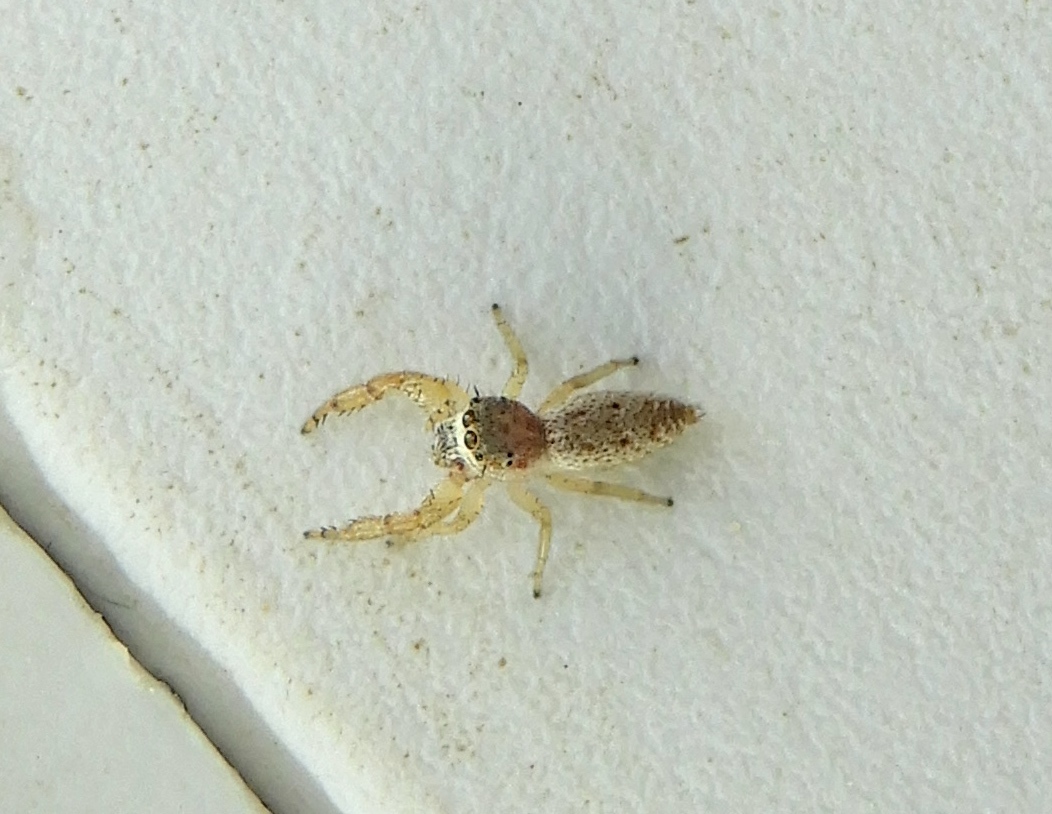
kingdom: Animalia
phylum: Arthropoda
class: Arachnida
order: Araneae
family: Salticidae
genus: Hentzia
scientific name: Hentzia
